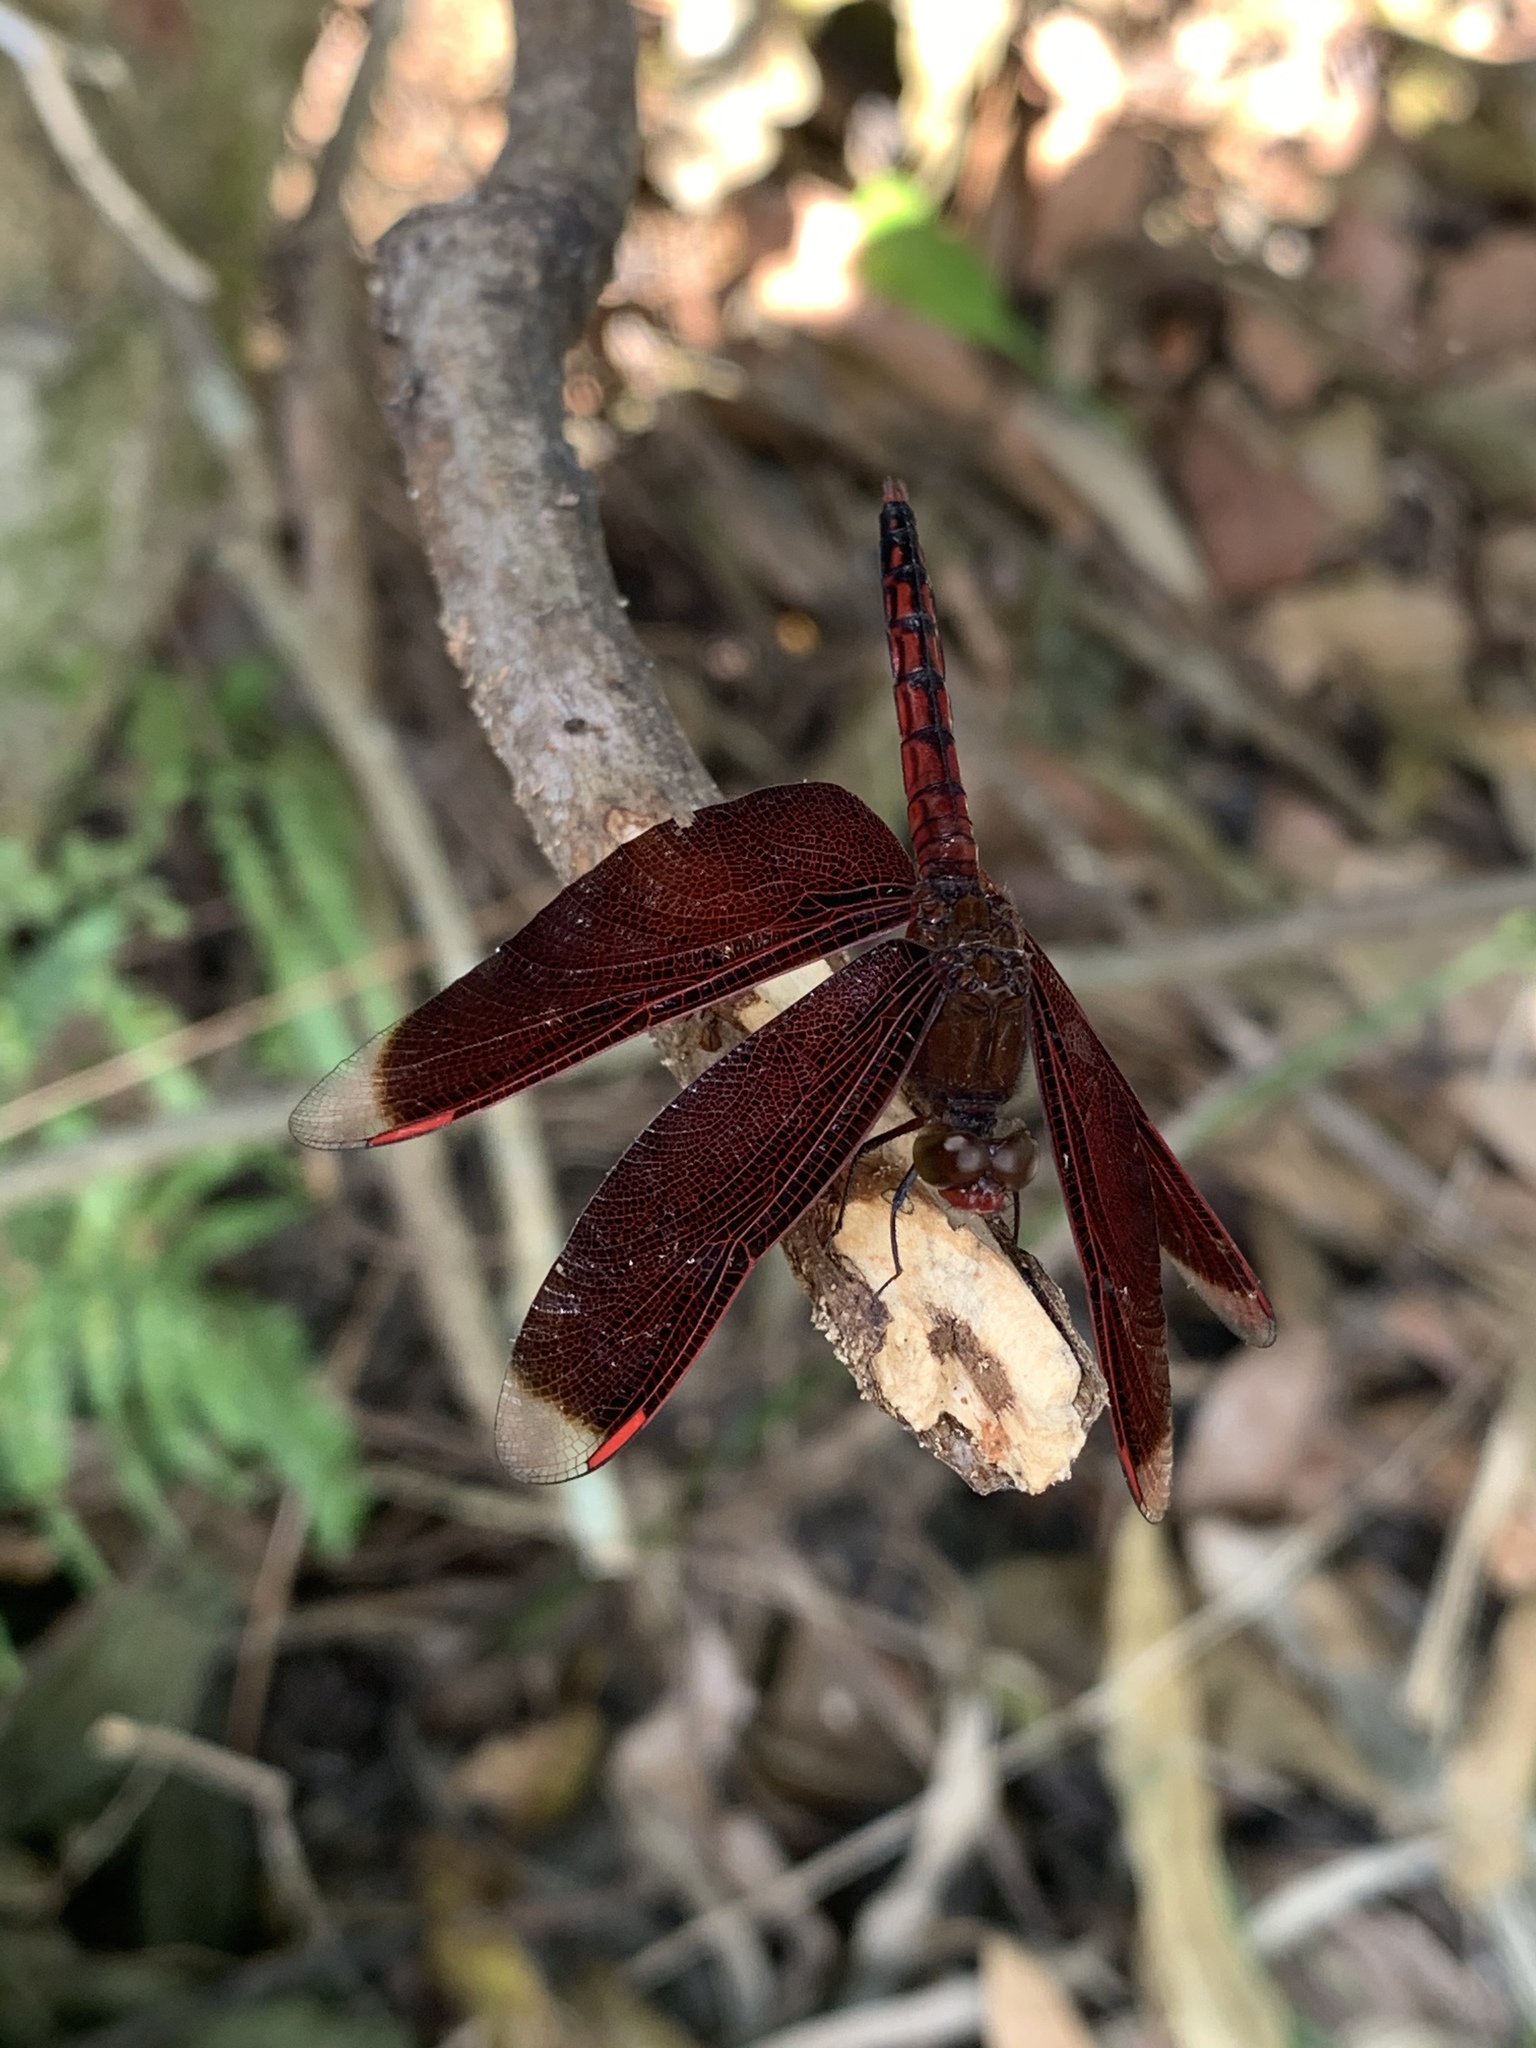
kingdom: Animalia
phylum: Arthropoda
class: Insecta
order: Odonata
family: Libellulidae
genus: Neurothemis
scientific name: Neurothemis taiwanensis
